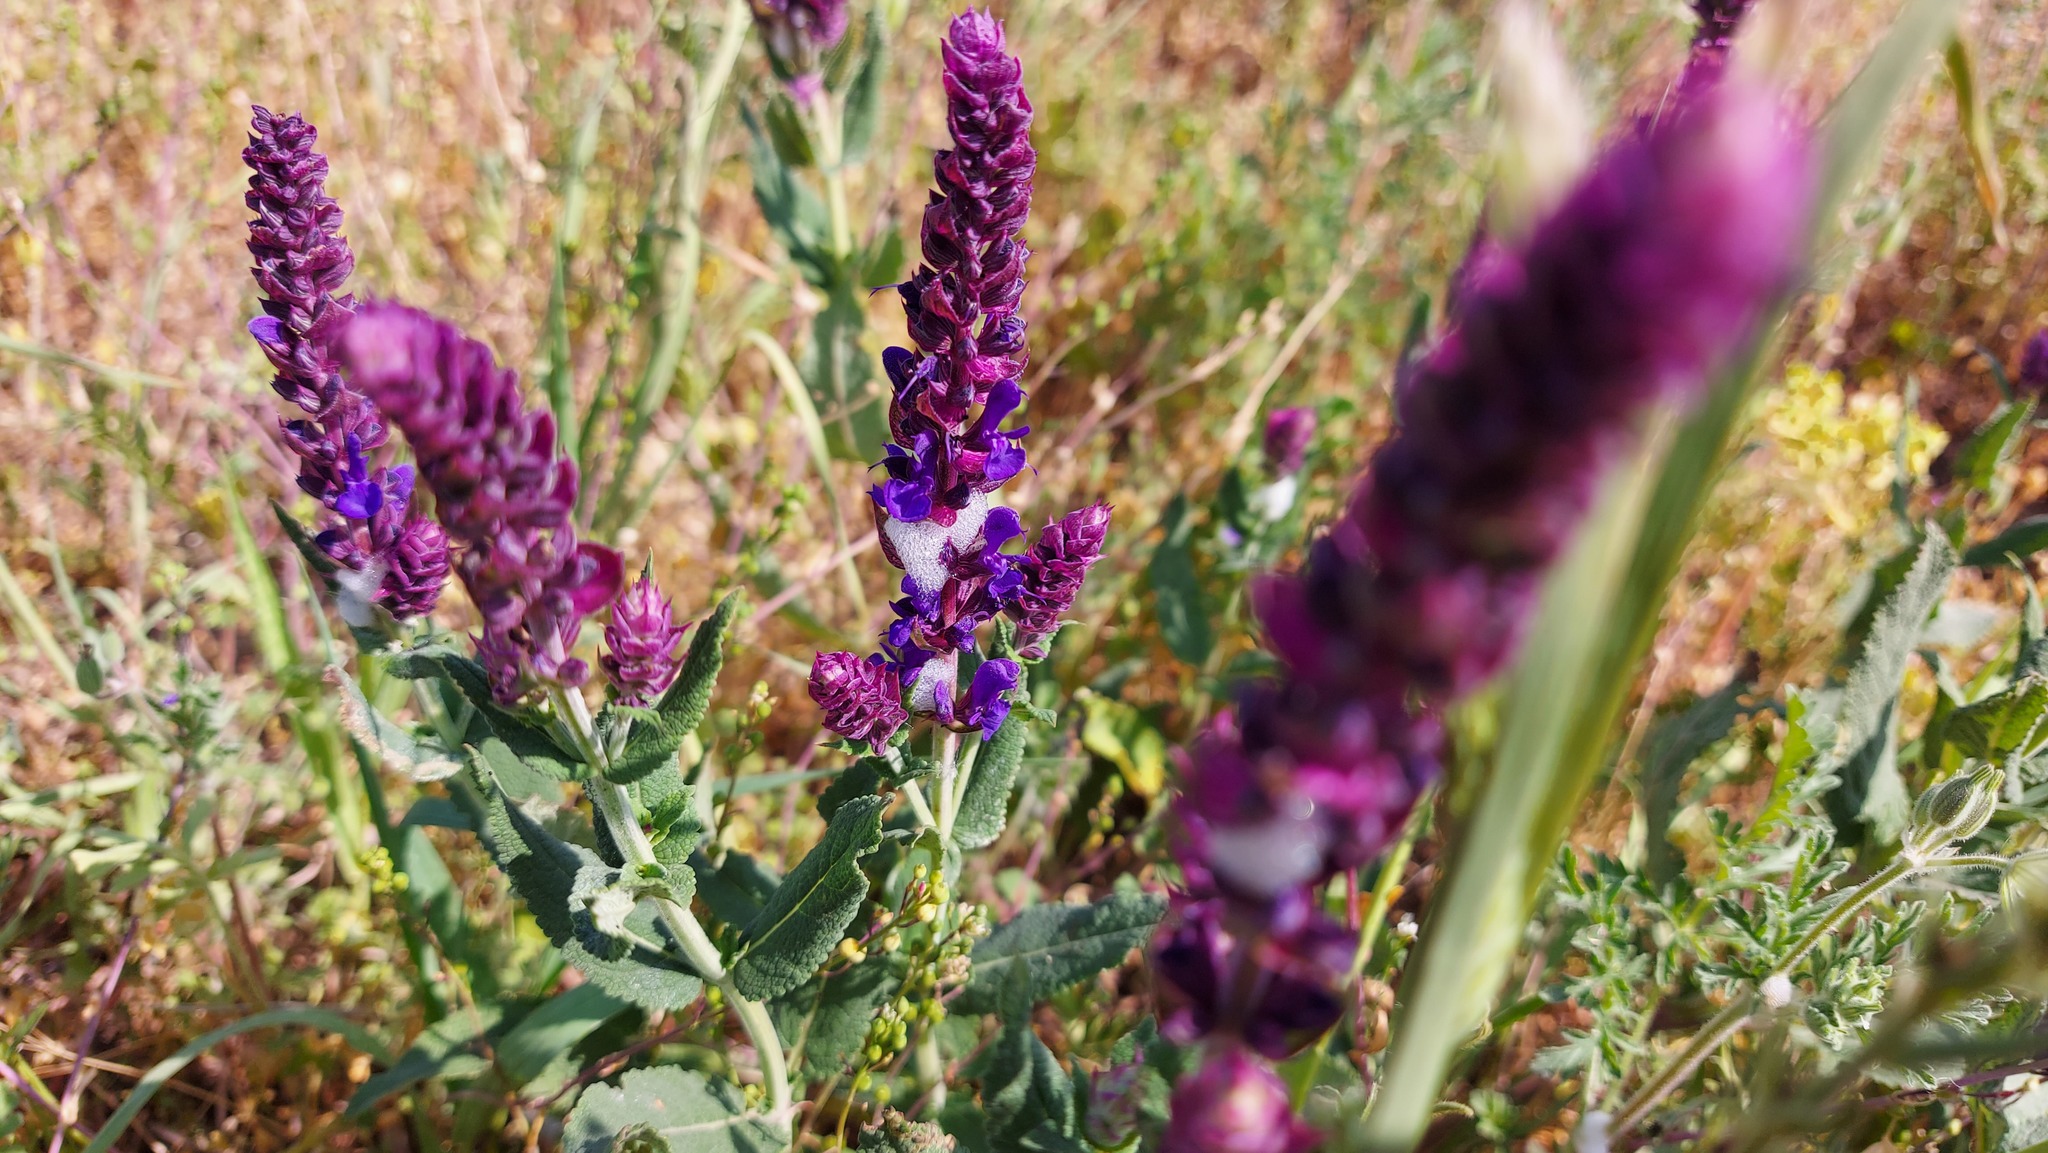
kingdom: Plantae
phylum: Tracheophyta
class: Magnoliopsida
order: Lamiales
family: Lamiaceae
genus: Salvia
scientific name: Salvia nemorosa
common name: Balkan clary
